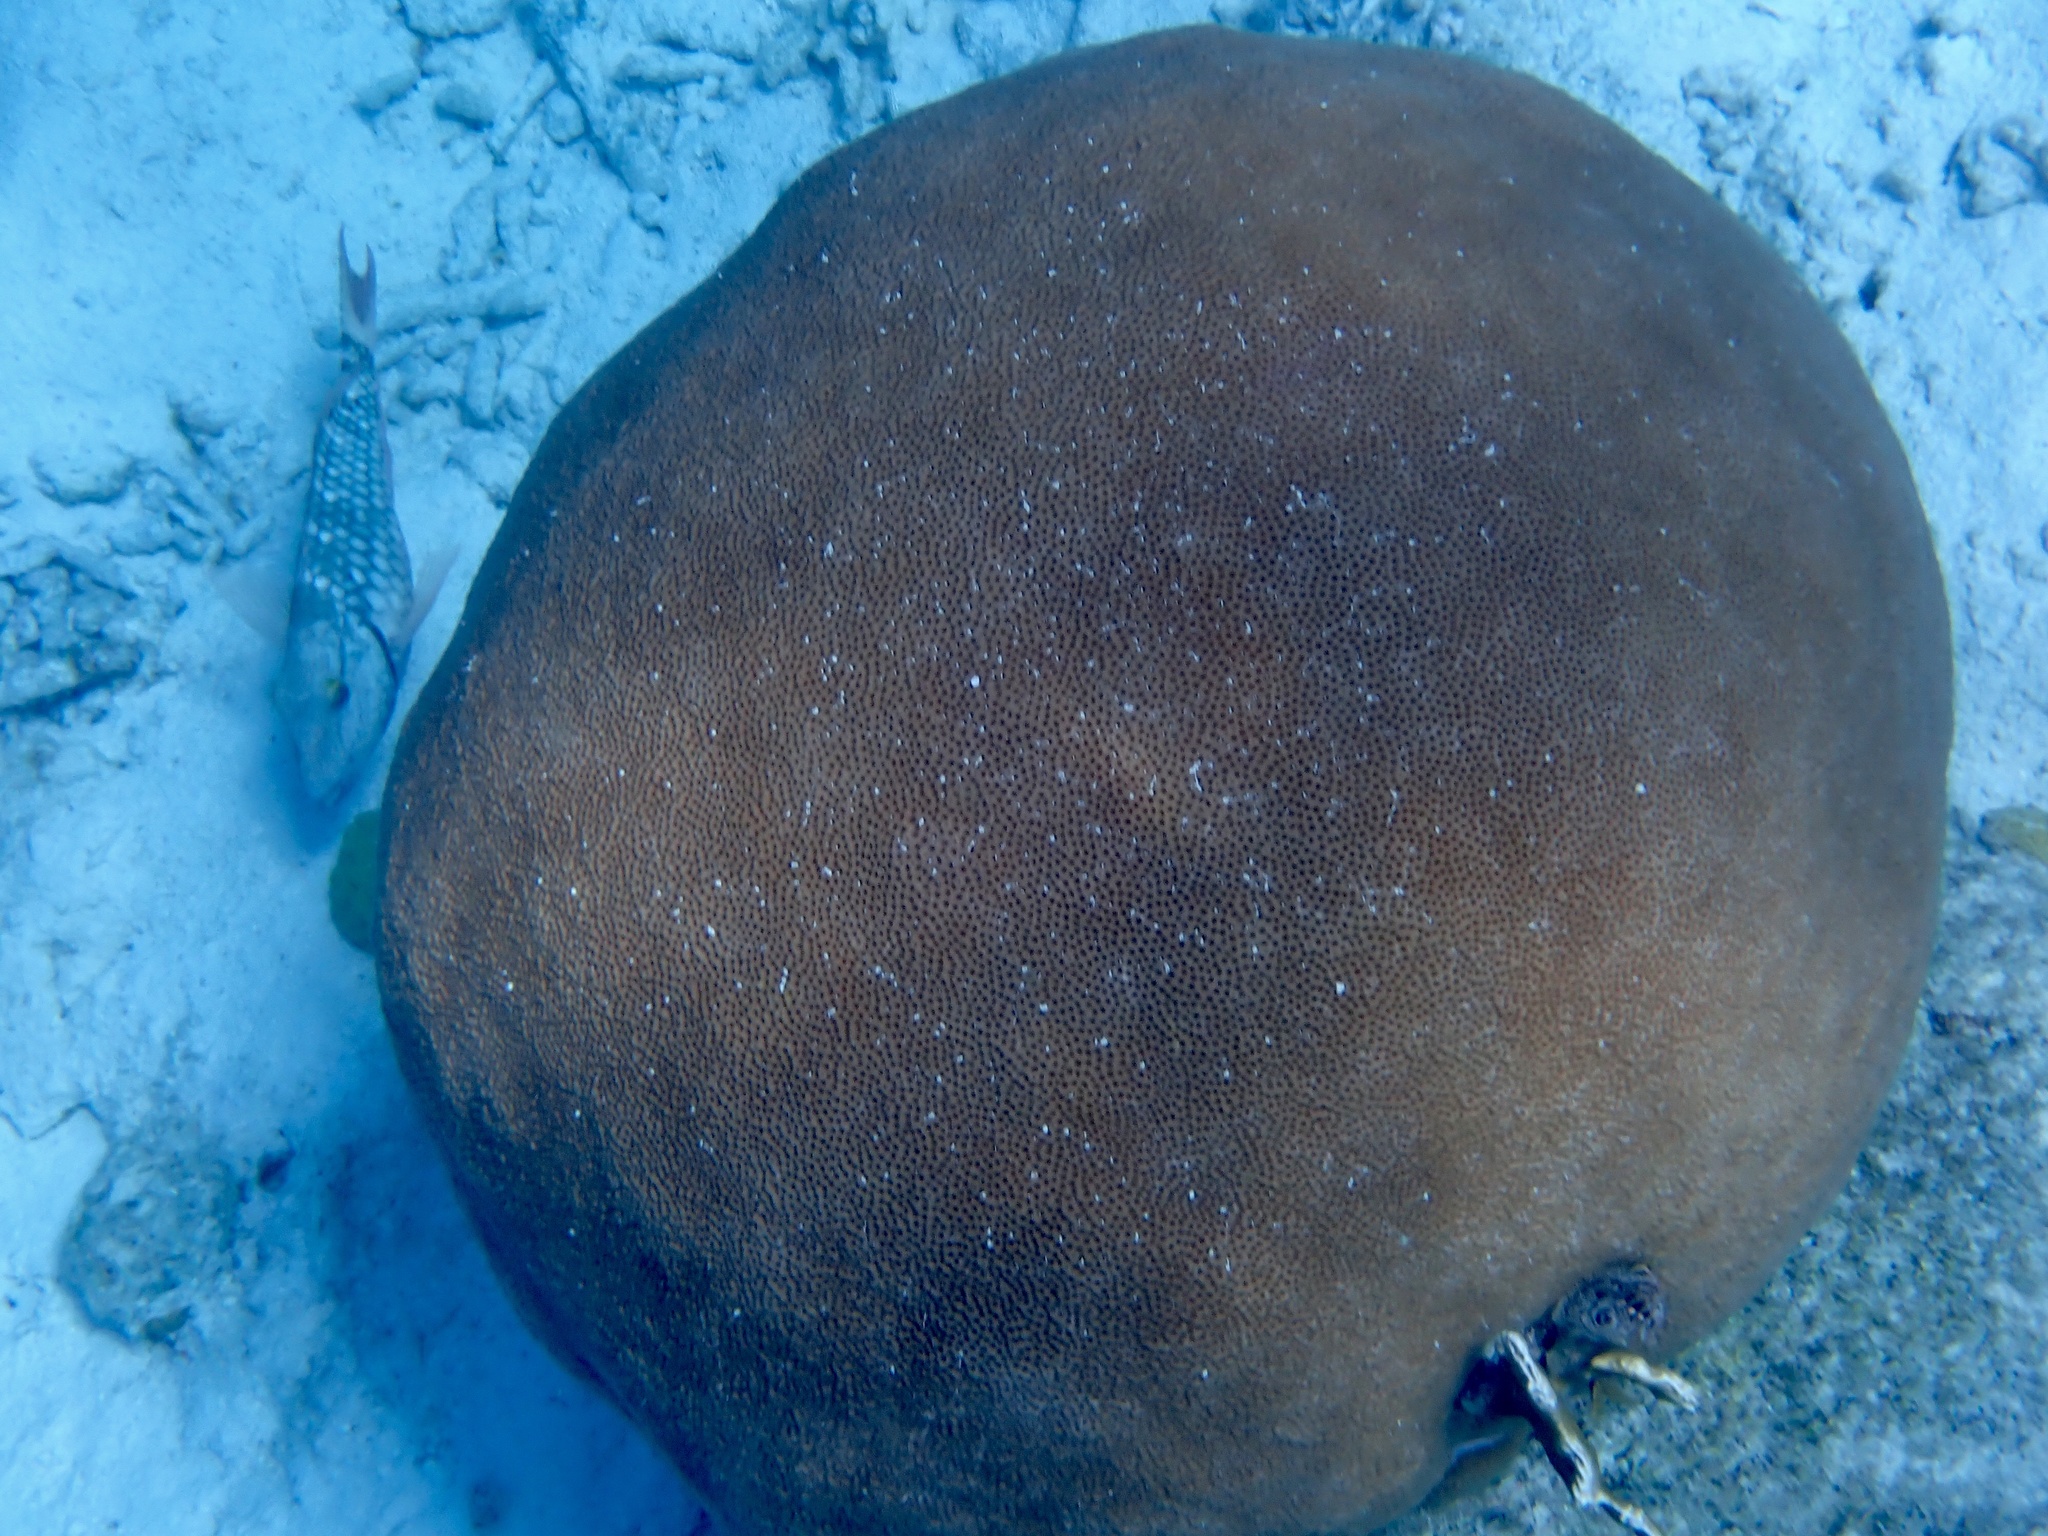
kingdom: Animalia
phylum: Cnidaria
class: Anthozoa
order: Scleractinia
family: Rhizangiidae
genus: Siderastrea
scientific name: Siderastrea siderea
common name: Massive starlet coral
